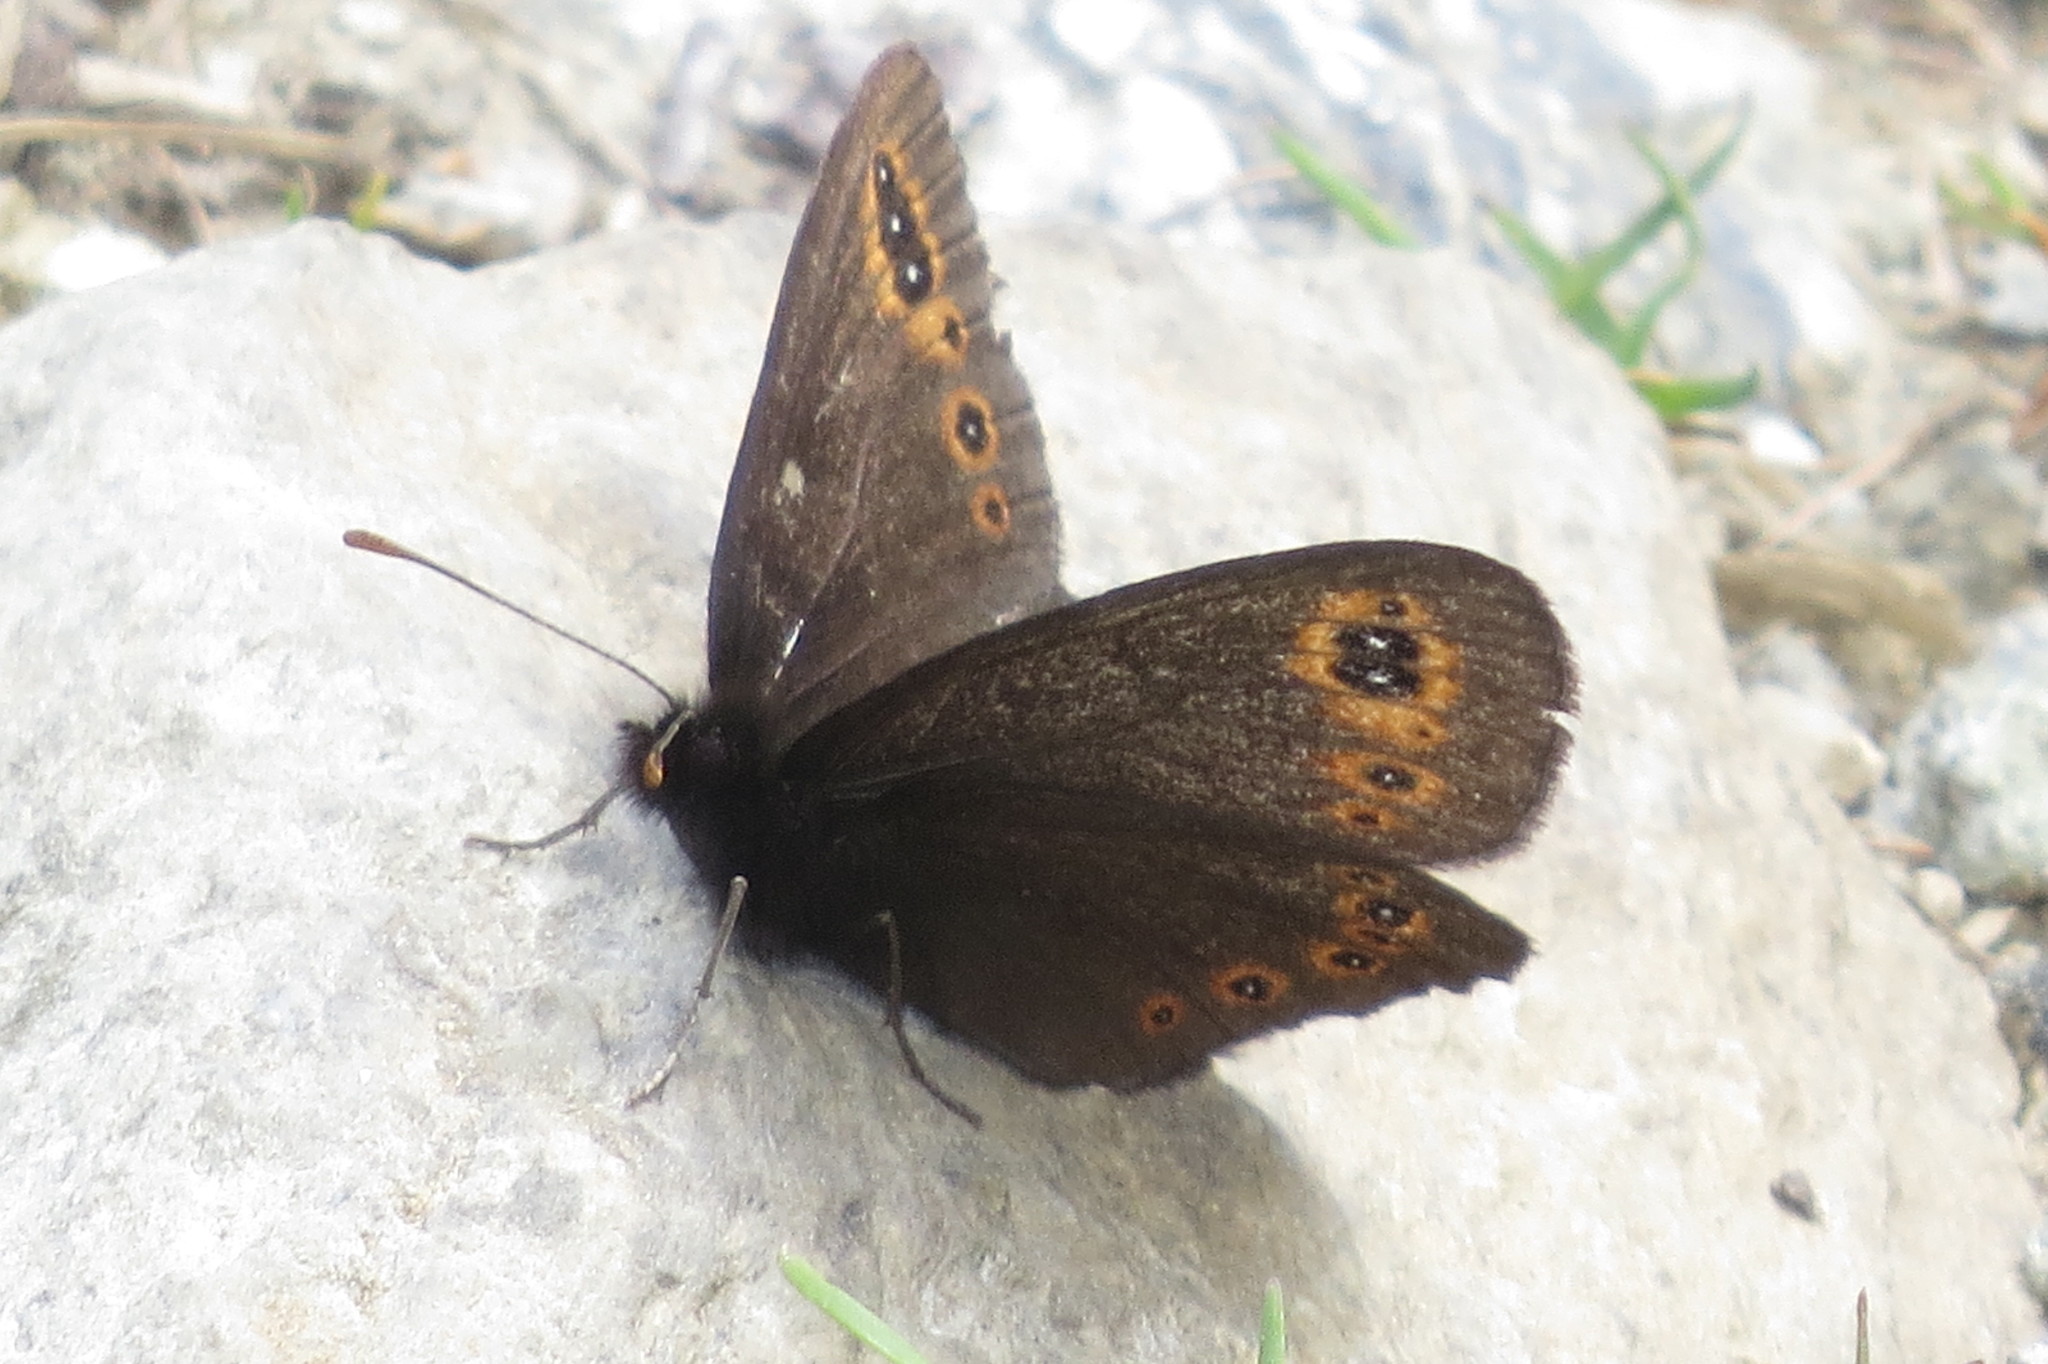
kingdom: Animalia
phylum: Arthropoda
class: Insecta
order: Lepidoptera
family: Nymphalidae
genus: Erebia
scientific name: Erebia medusa
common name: Woodland ringlet
